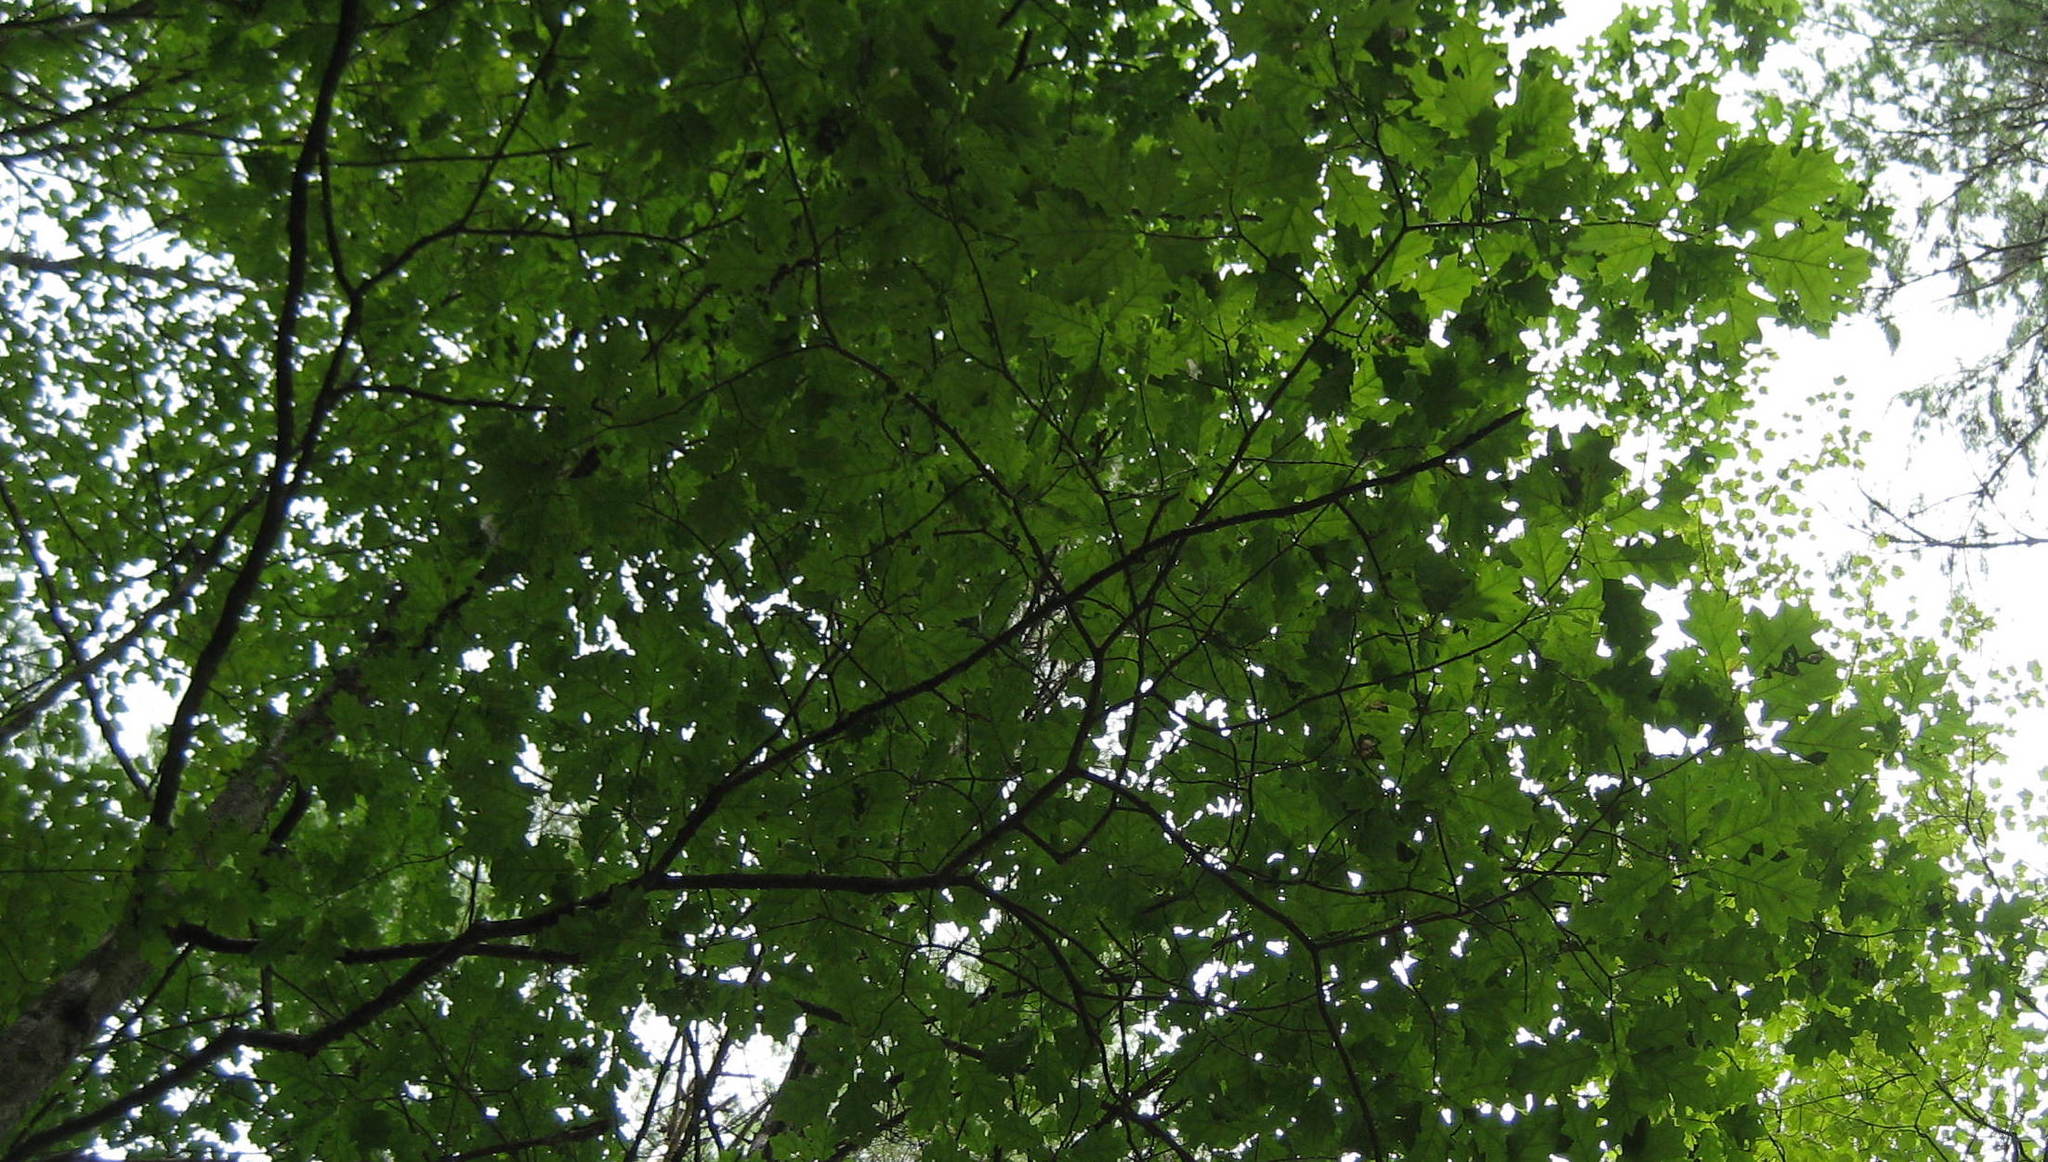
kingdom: Plantae
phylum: Tracheophyta
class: Magnoliopsida
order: Fagales
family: Fagaceae
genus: Quercus
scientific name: Quercus rubra
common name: Red oak
